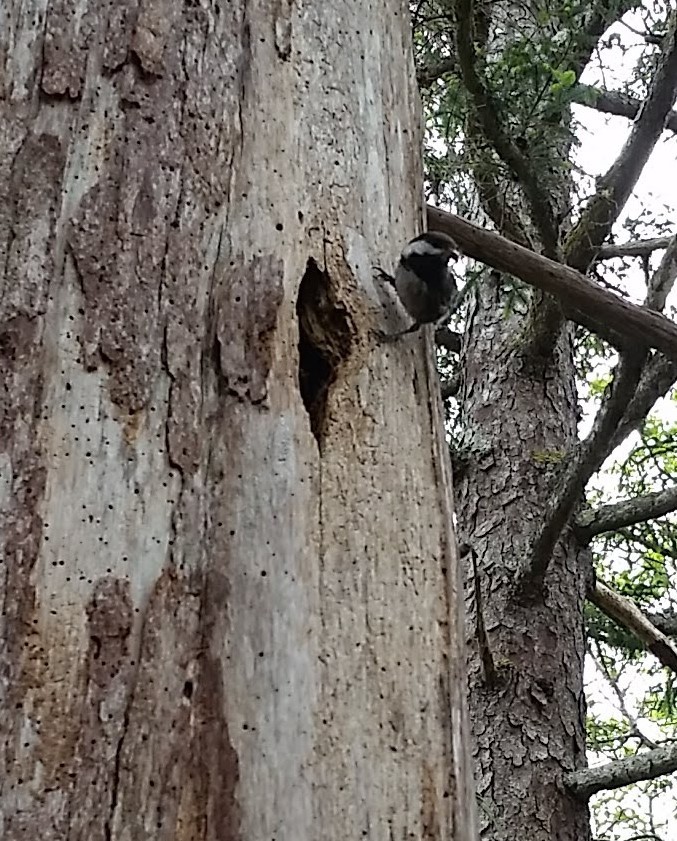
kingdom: Animalia
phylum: Chordata
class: Aves
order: Passeriformes
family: Paridae
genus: Poecile
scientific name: Poecile rufescens
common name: Chestnut-backed chickadee
